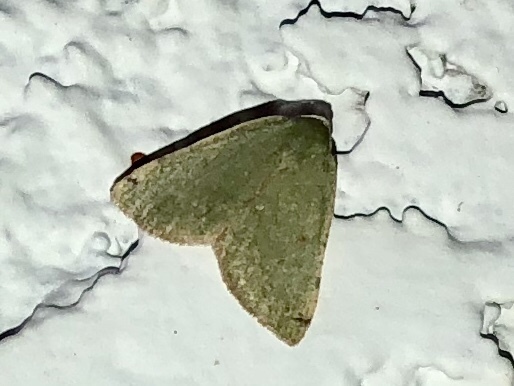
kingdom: Animalia
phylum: Arthropoda
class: Insecta
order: Lepidoptera
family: Geometridae
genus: Chloraspilates
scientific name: Chloraspilates bicoloraria
